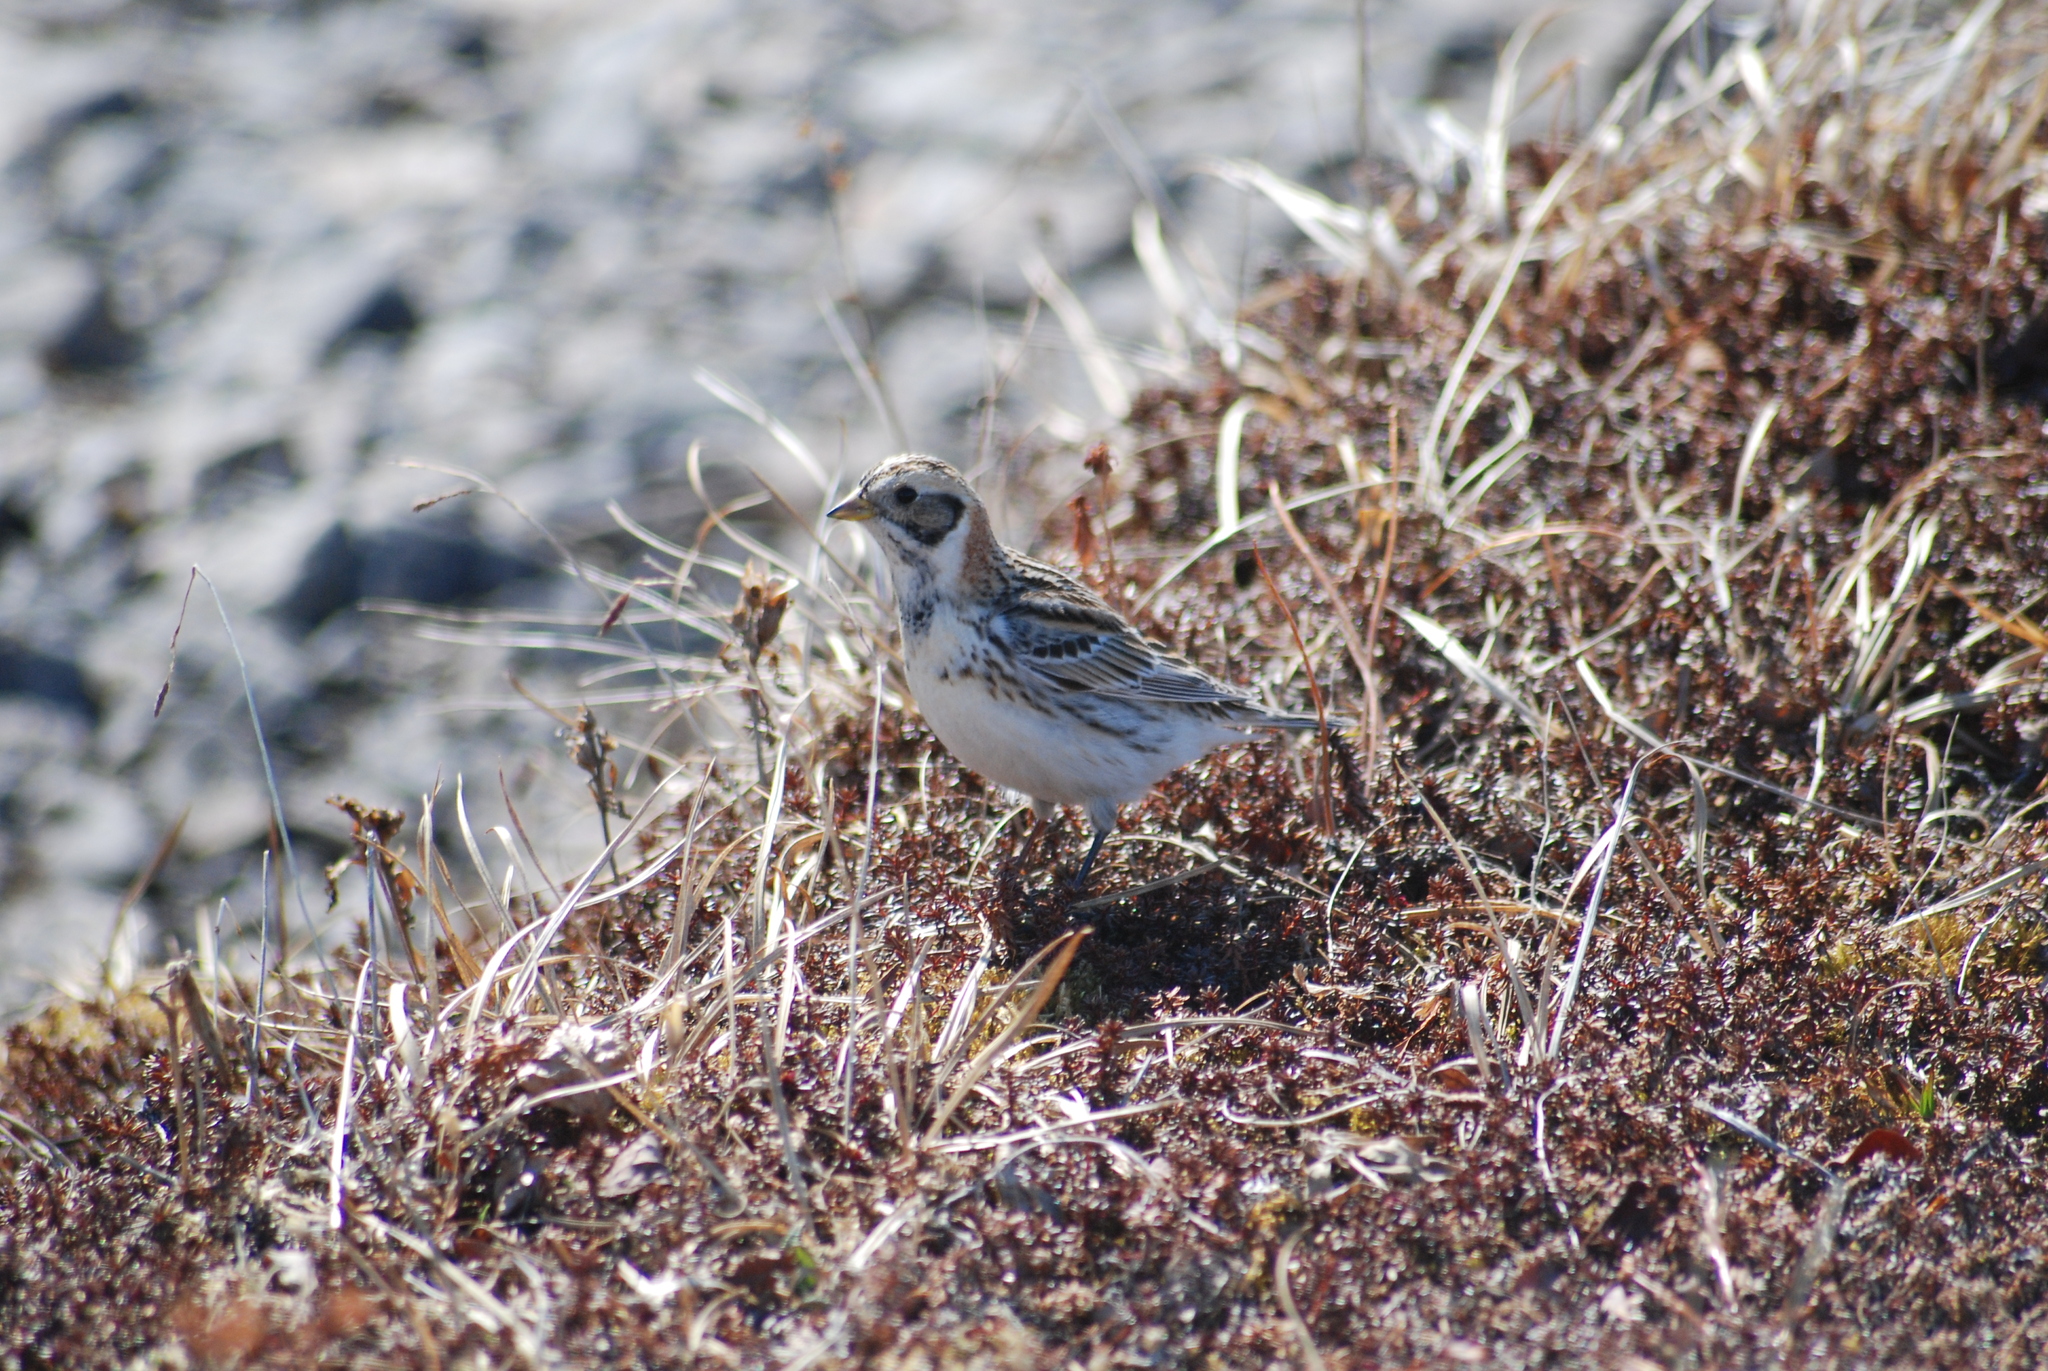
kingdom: Animalia
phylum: Chordata
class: Aves
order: Passeriformes
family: Calcariidae
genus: Calcarius
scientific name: Calcarius lapponicus
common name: Lapland longspur
